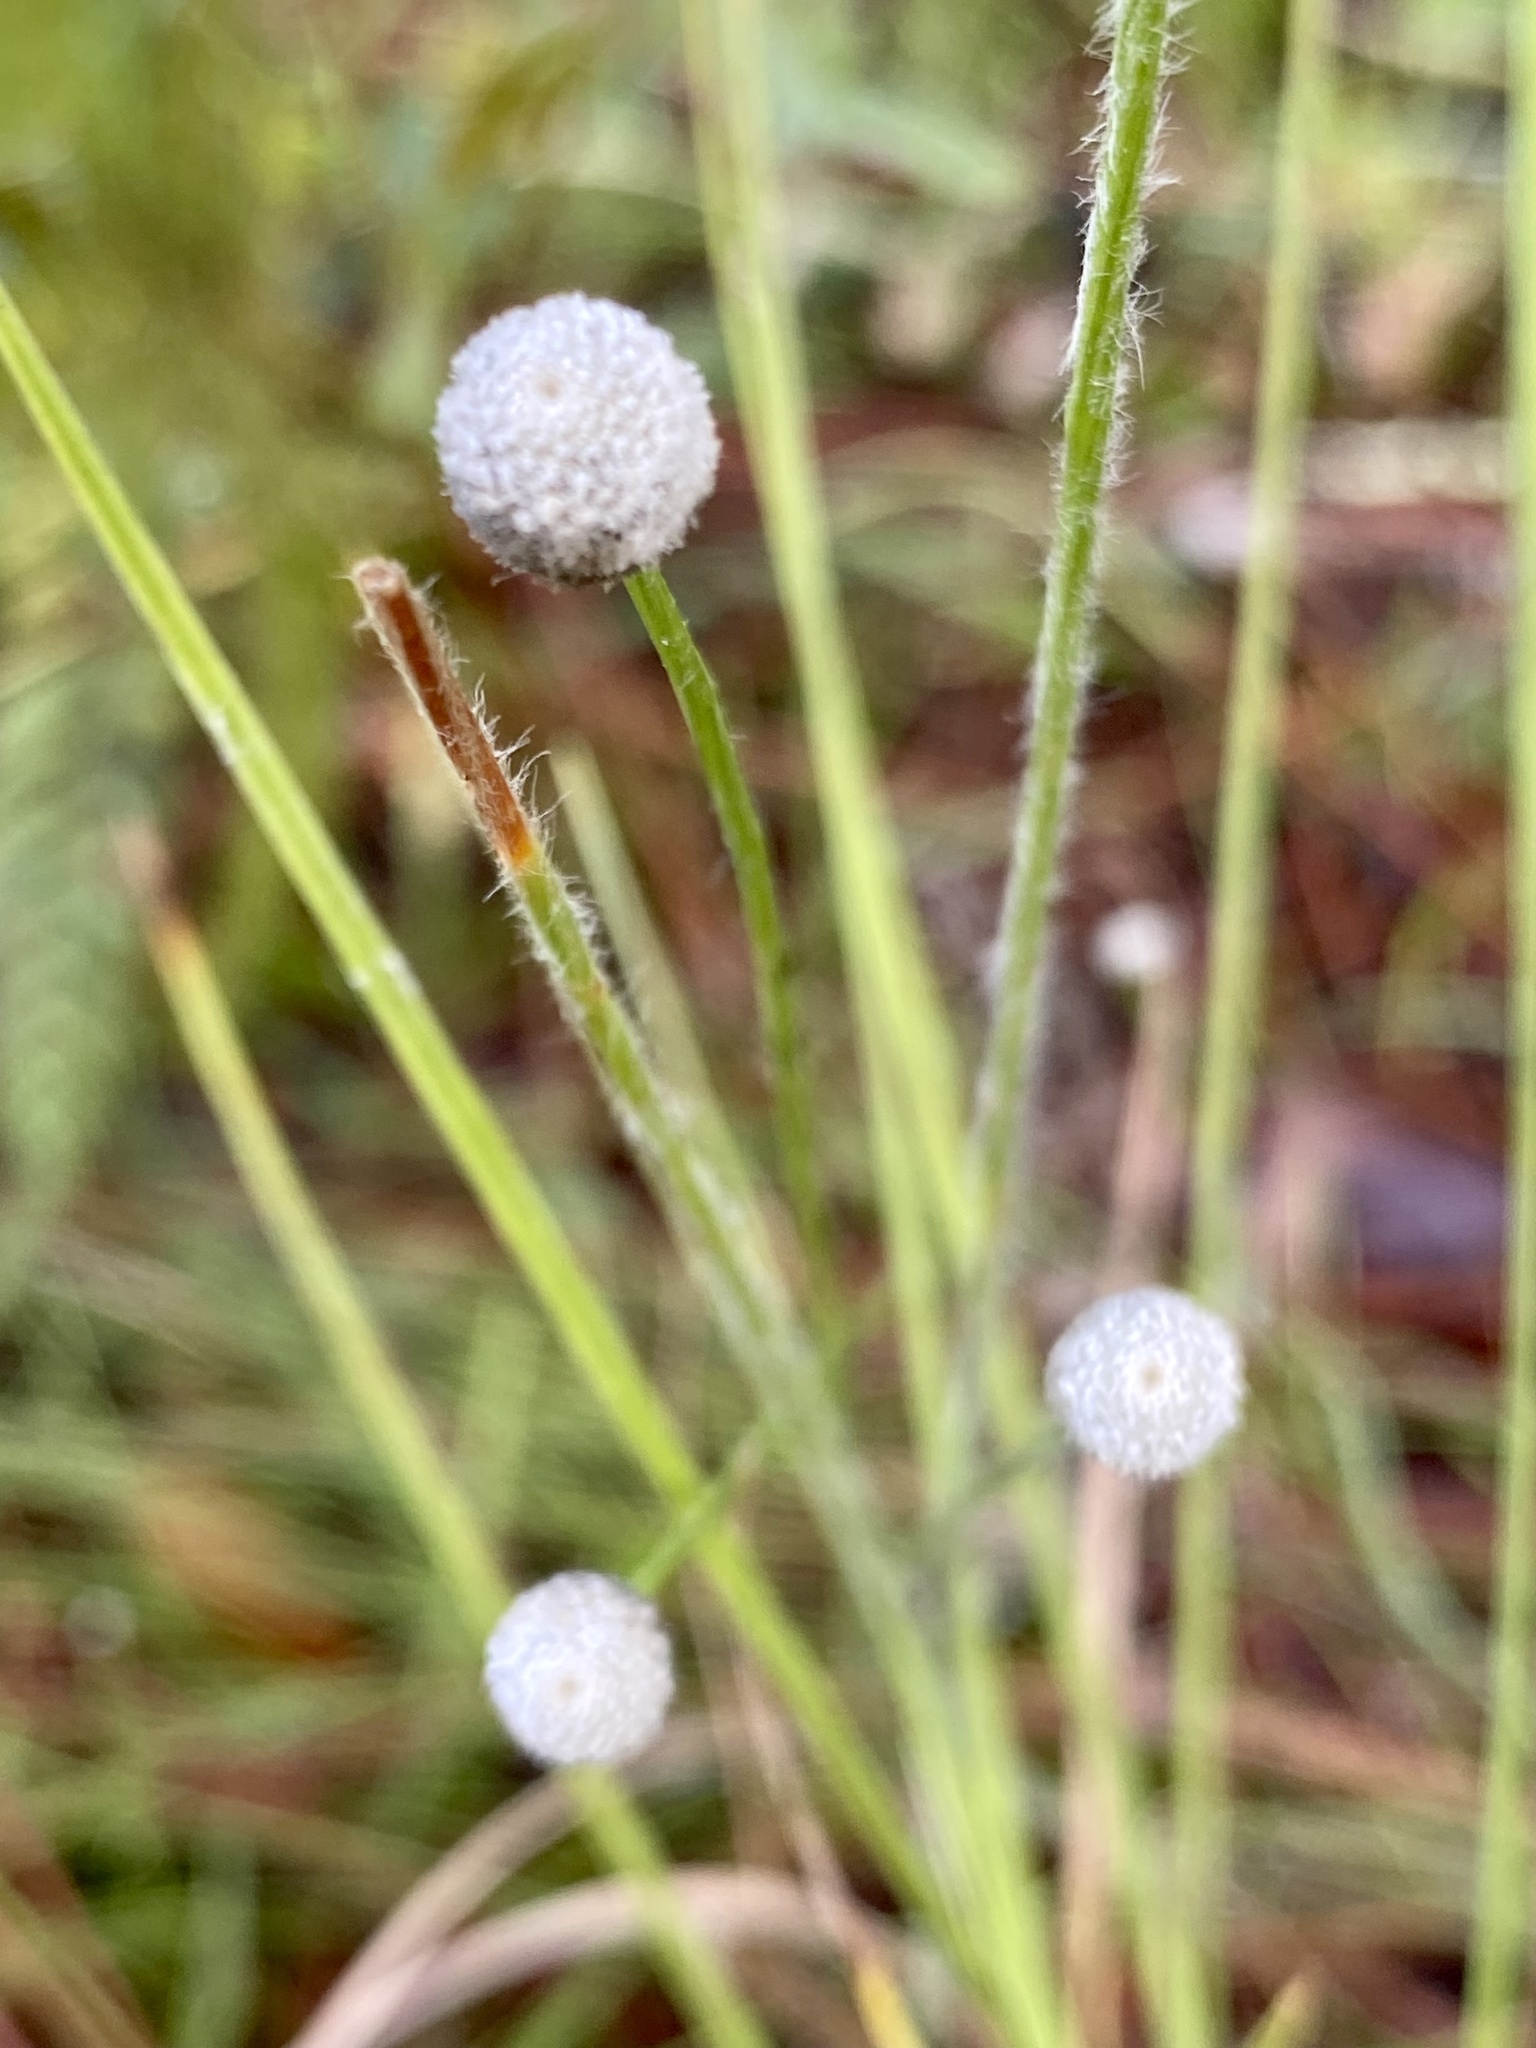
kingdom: Plantae
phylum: Tracheophyta
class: Liliopsida
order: Poales
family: Eriocaulaceae
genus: Paepalanthus
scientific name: Paepalanthus anceps
